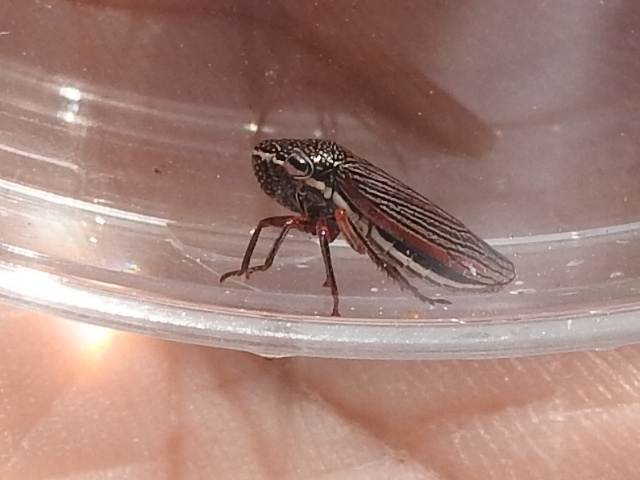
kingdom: Animalia
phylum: Arthropoda
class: Insecta
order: Hemiptera
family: Cicadellidae
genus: Cuerna
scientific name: Cuerna costalis
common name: Lateral-lined sharpshooter
